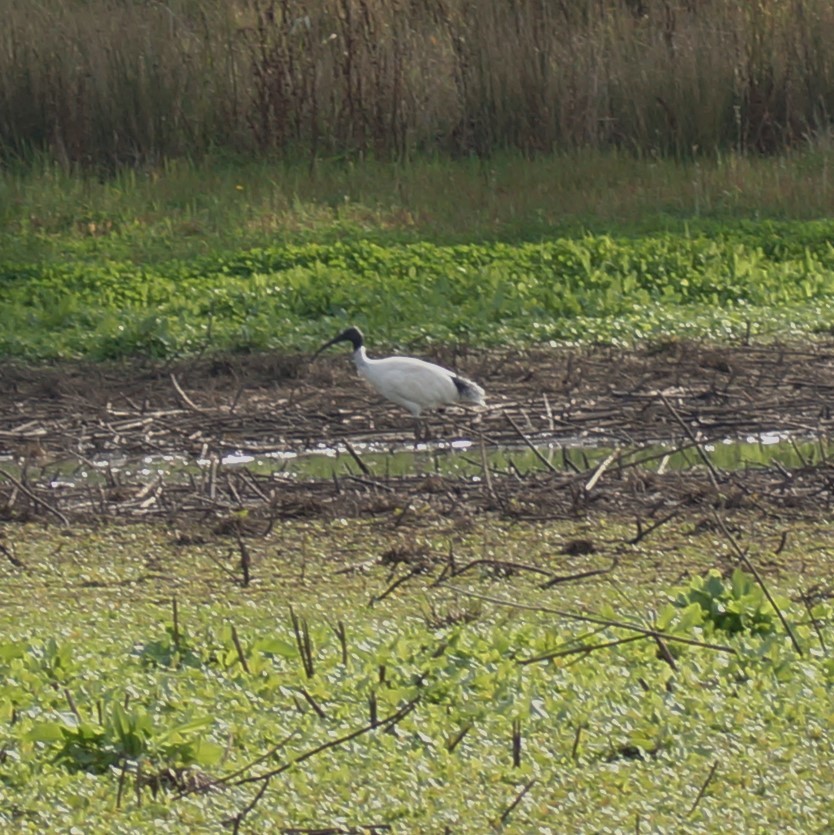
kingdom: Animalia
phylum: Chordata
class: Aves
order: Pelecaniformes
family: Threskiornithidae
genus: Threskiornis
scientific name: Threskiornis molucca
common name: Australian white ibis
